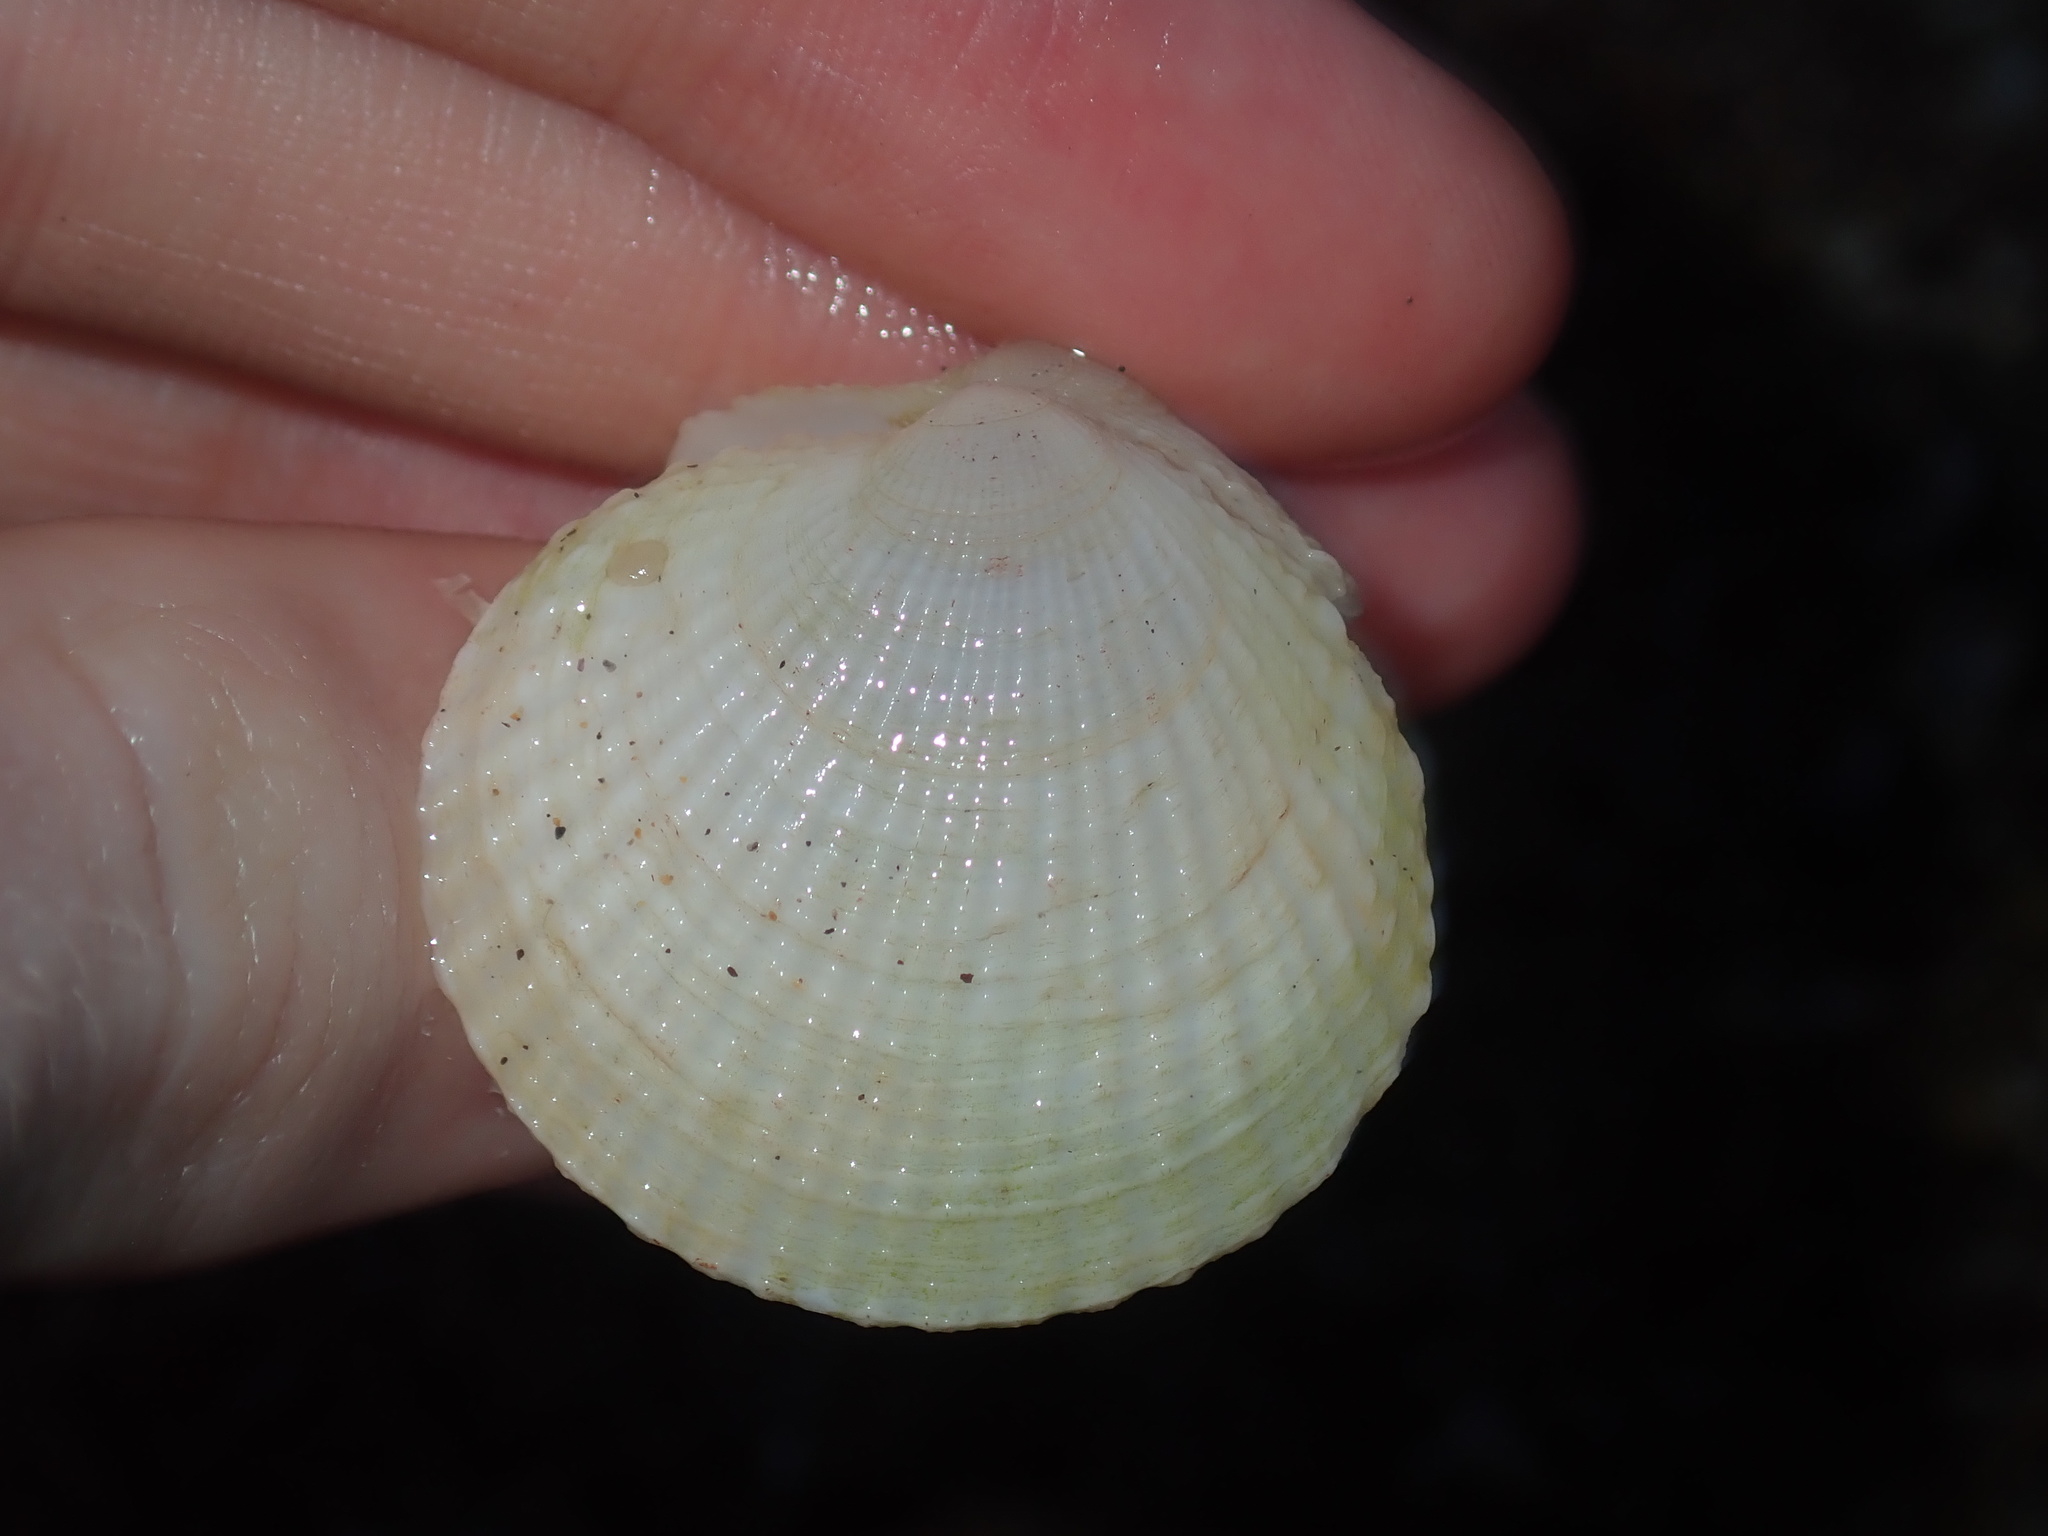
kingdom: Animalia
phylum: Mollusca
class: Bivalvia
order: Lucinida
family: Lucinidae
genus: Codakia
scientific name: Codakia rugifera
